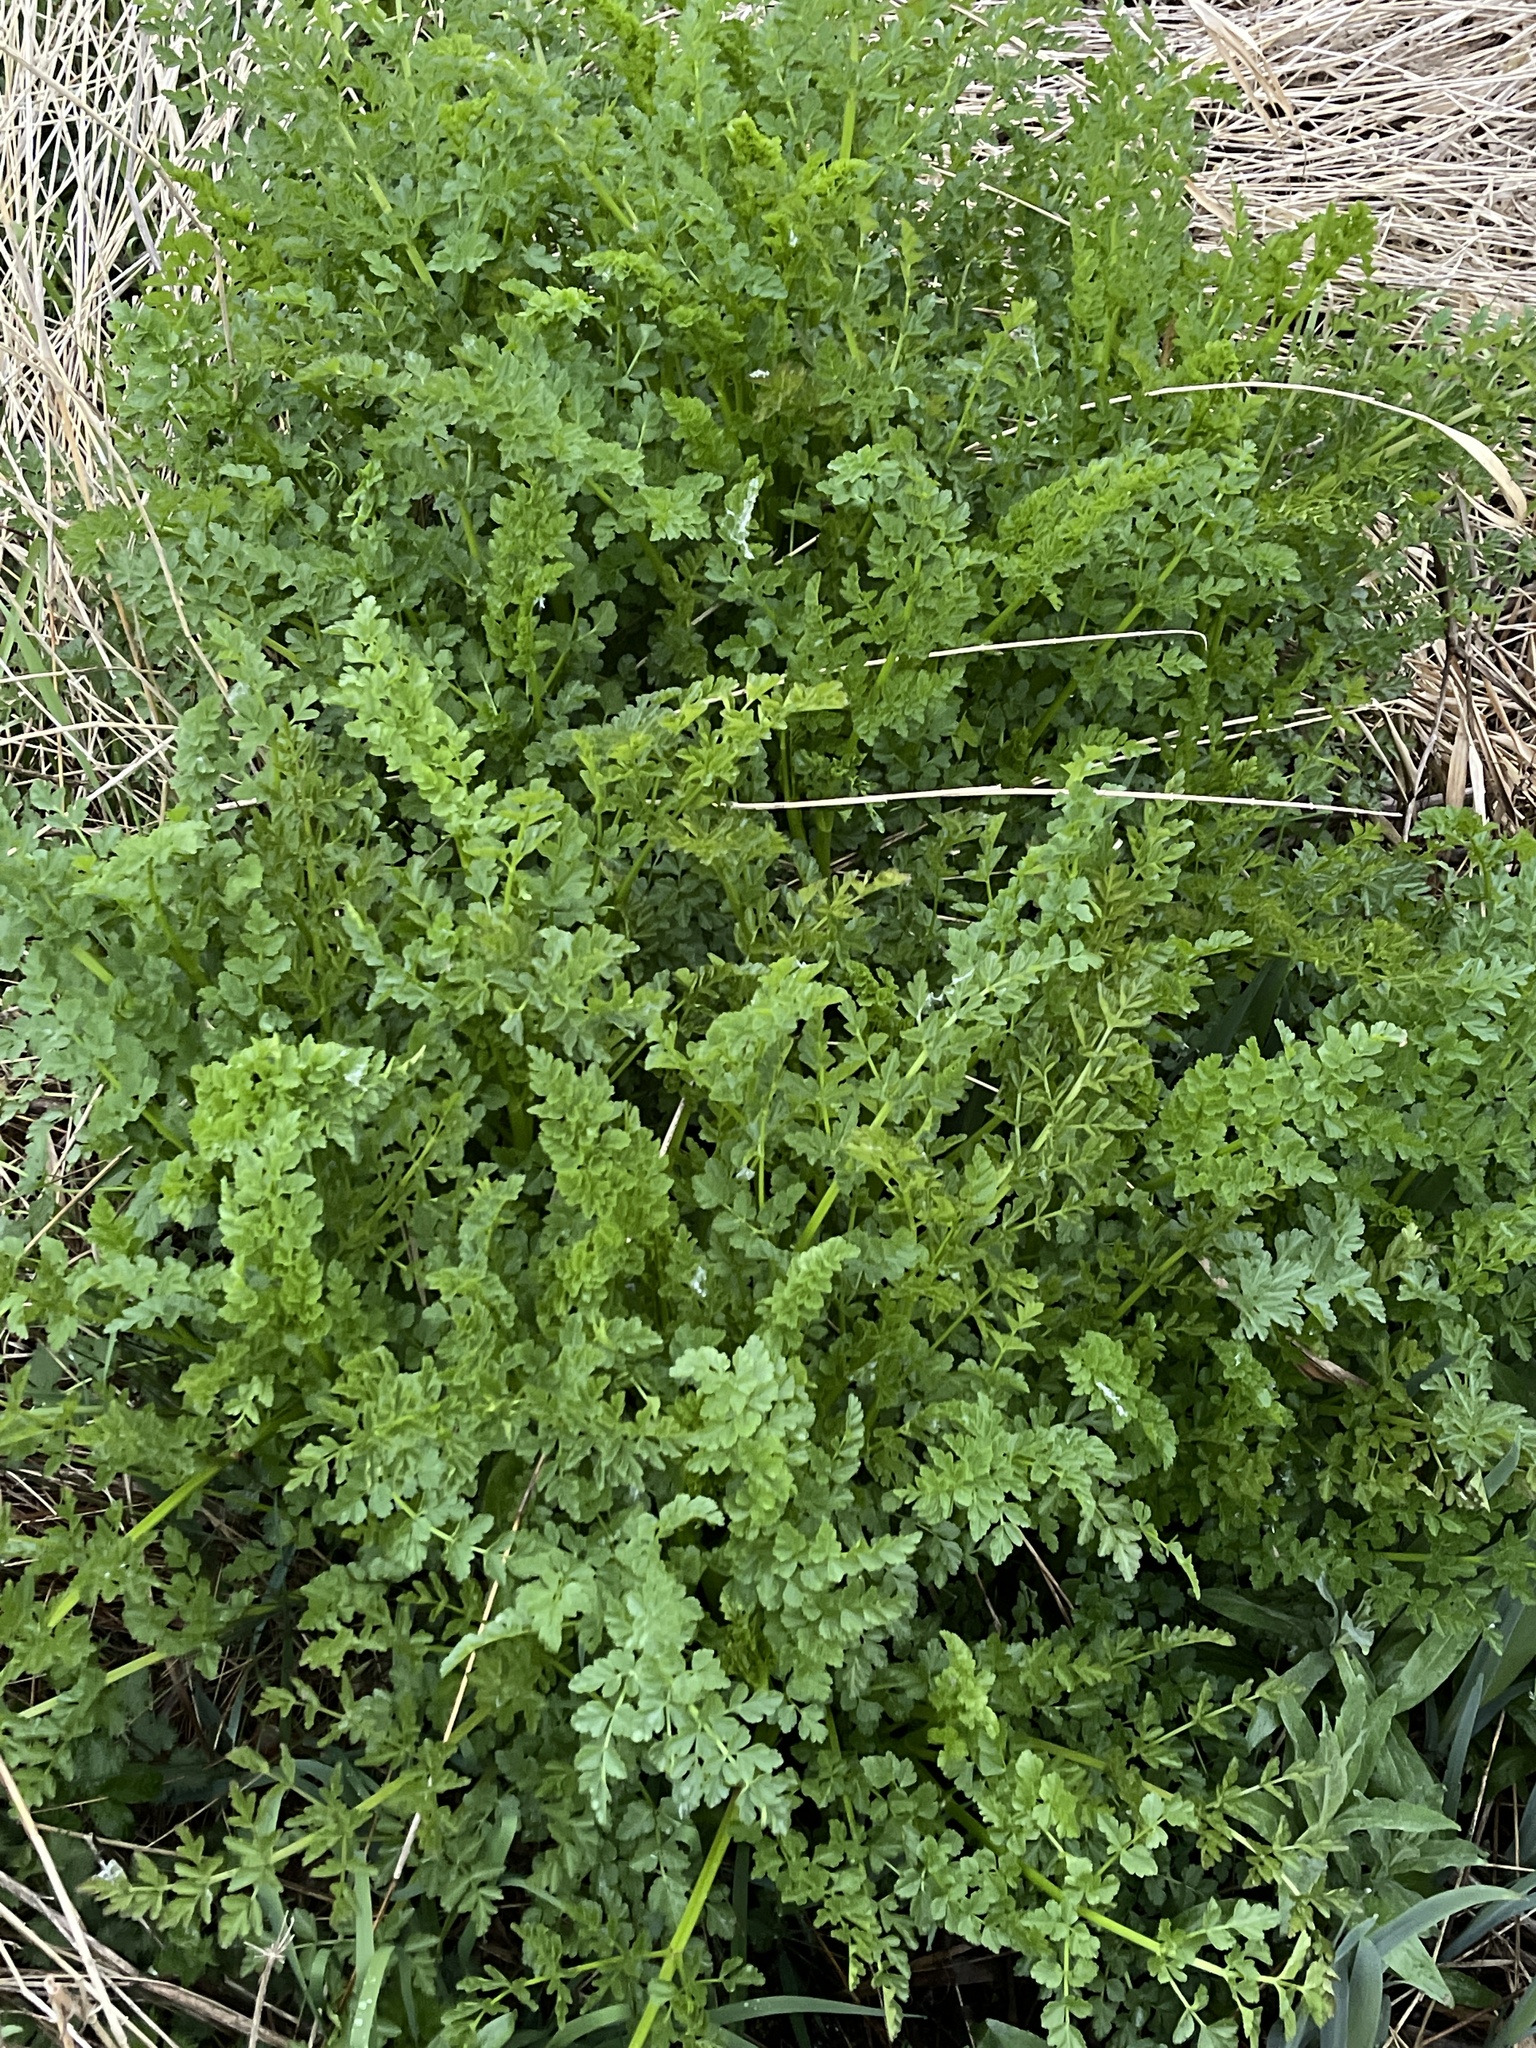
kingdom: Plantae
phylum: Tracheophyta
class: Magnoliopsida
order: Apiales
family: Apiaceae
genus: Oenanthe
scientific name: Oenanthe crocata
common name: Hemlock water-dropwort
